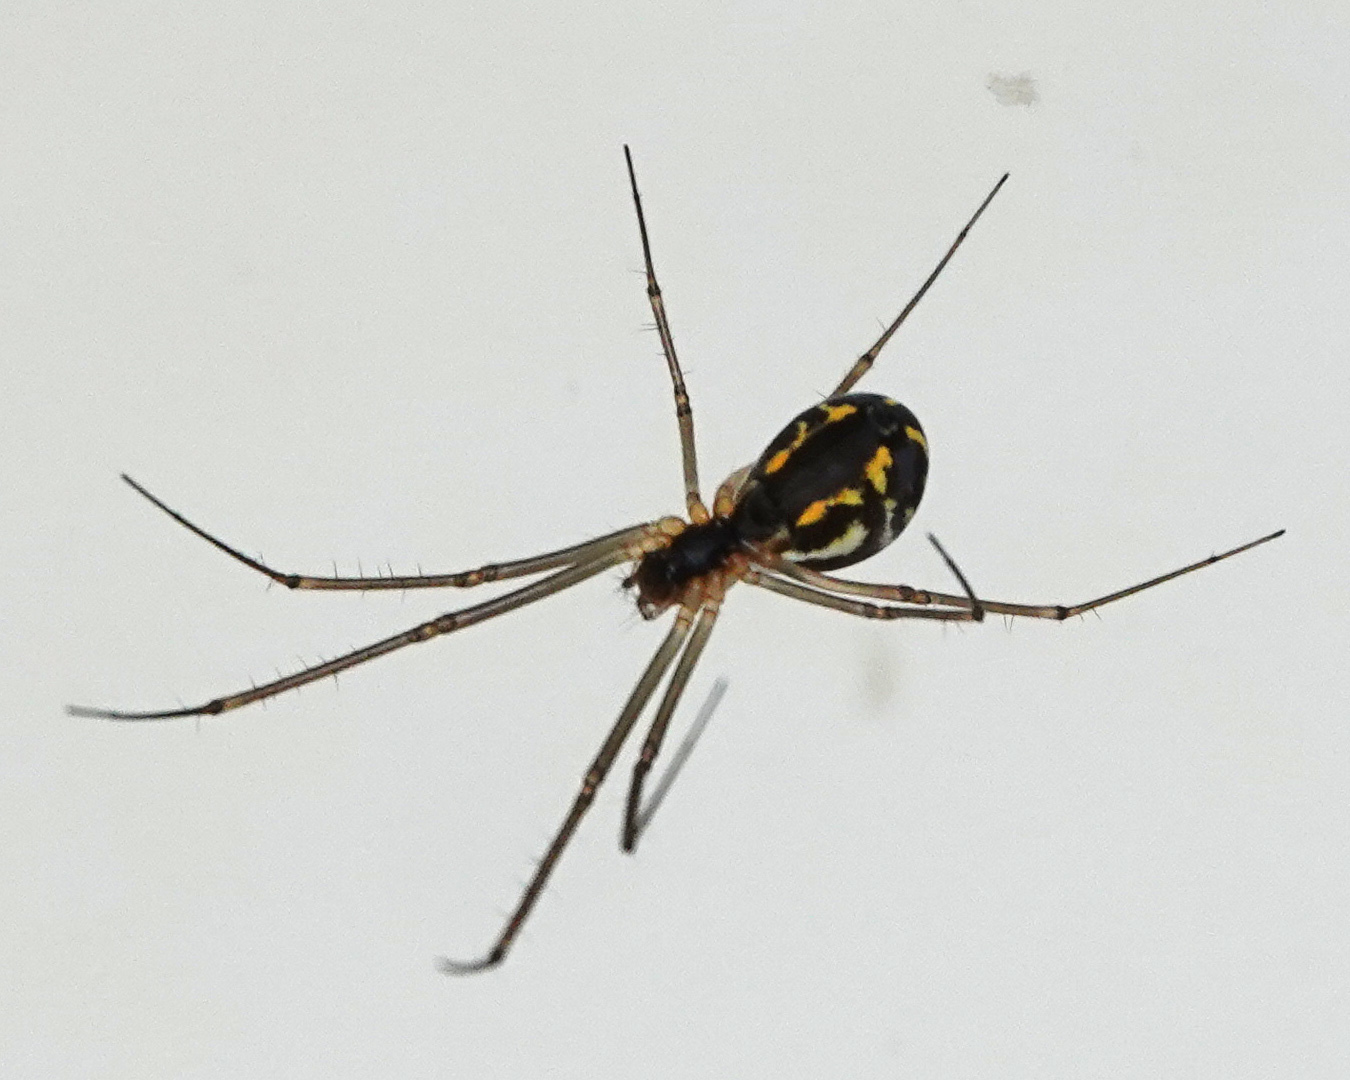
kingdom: Animalia
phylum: Arthropoda
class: Arachnida
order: Araneae
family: Linyphiidae
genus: Neriene
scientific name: Neriene radiata
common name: Filmy dome spider
